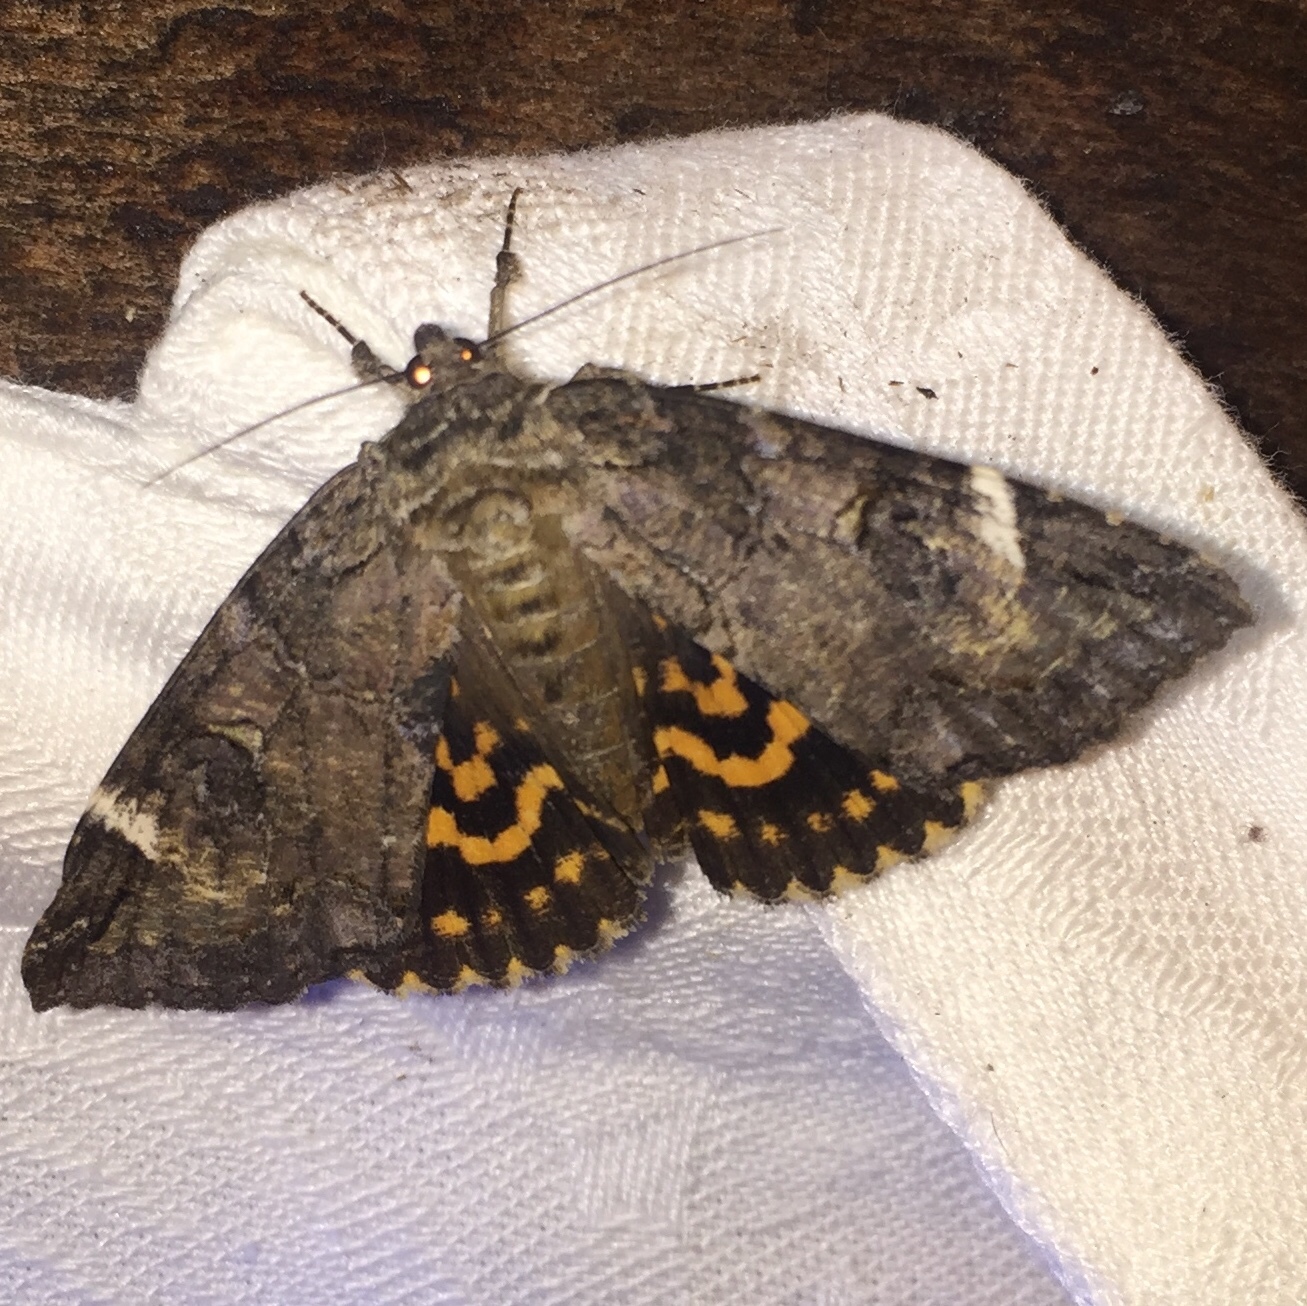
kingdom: Animalia
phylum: Arthropoda
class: Insecta
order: Lepidoptera
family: Erebidae
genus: Euparthenos
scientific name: Euparthenos nubilis
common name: Locust underwing
